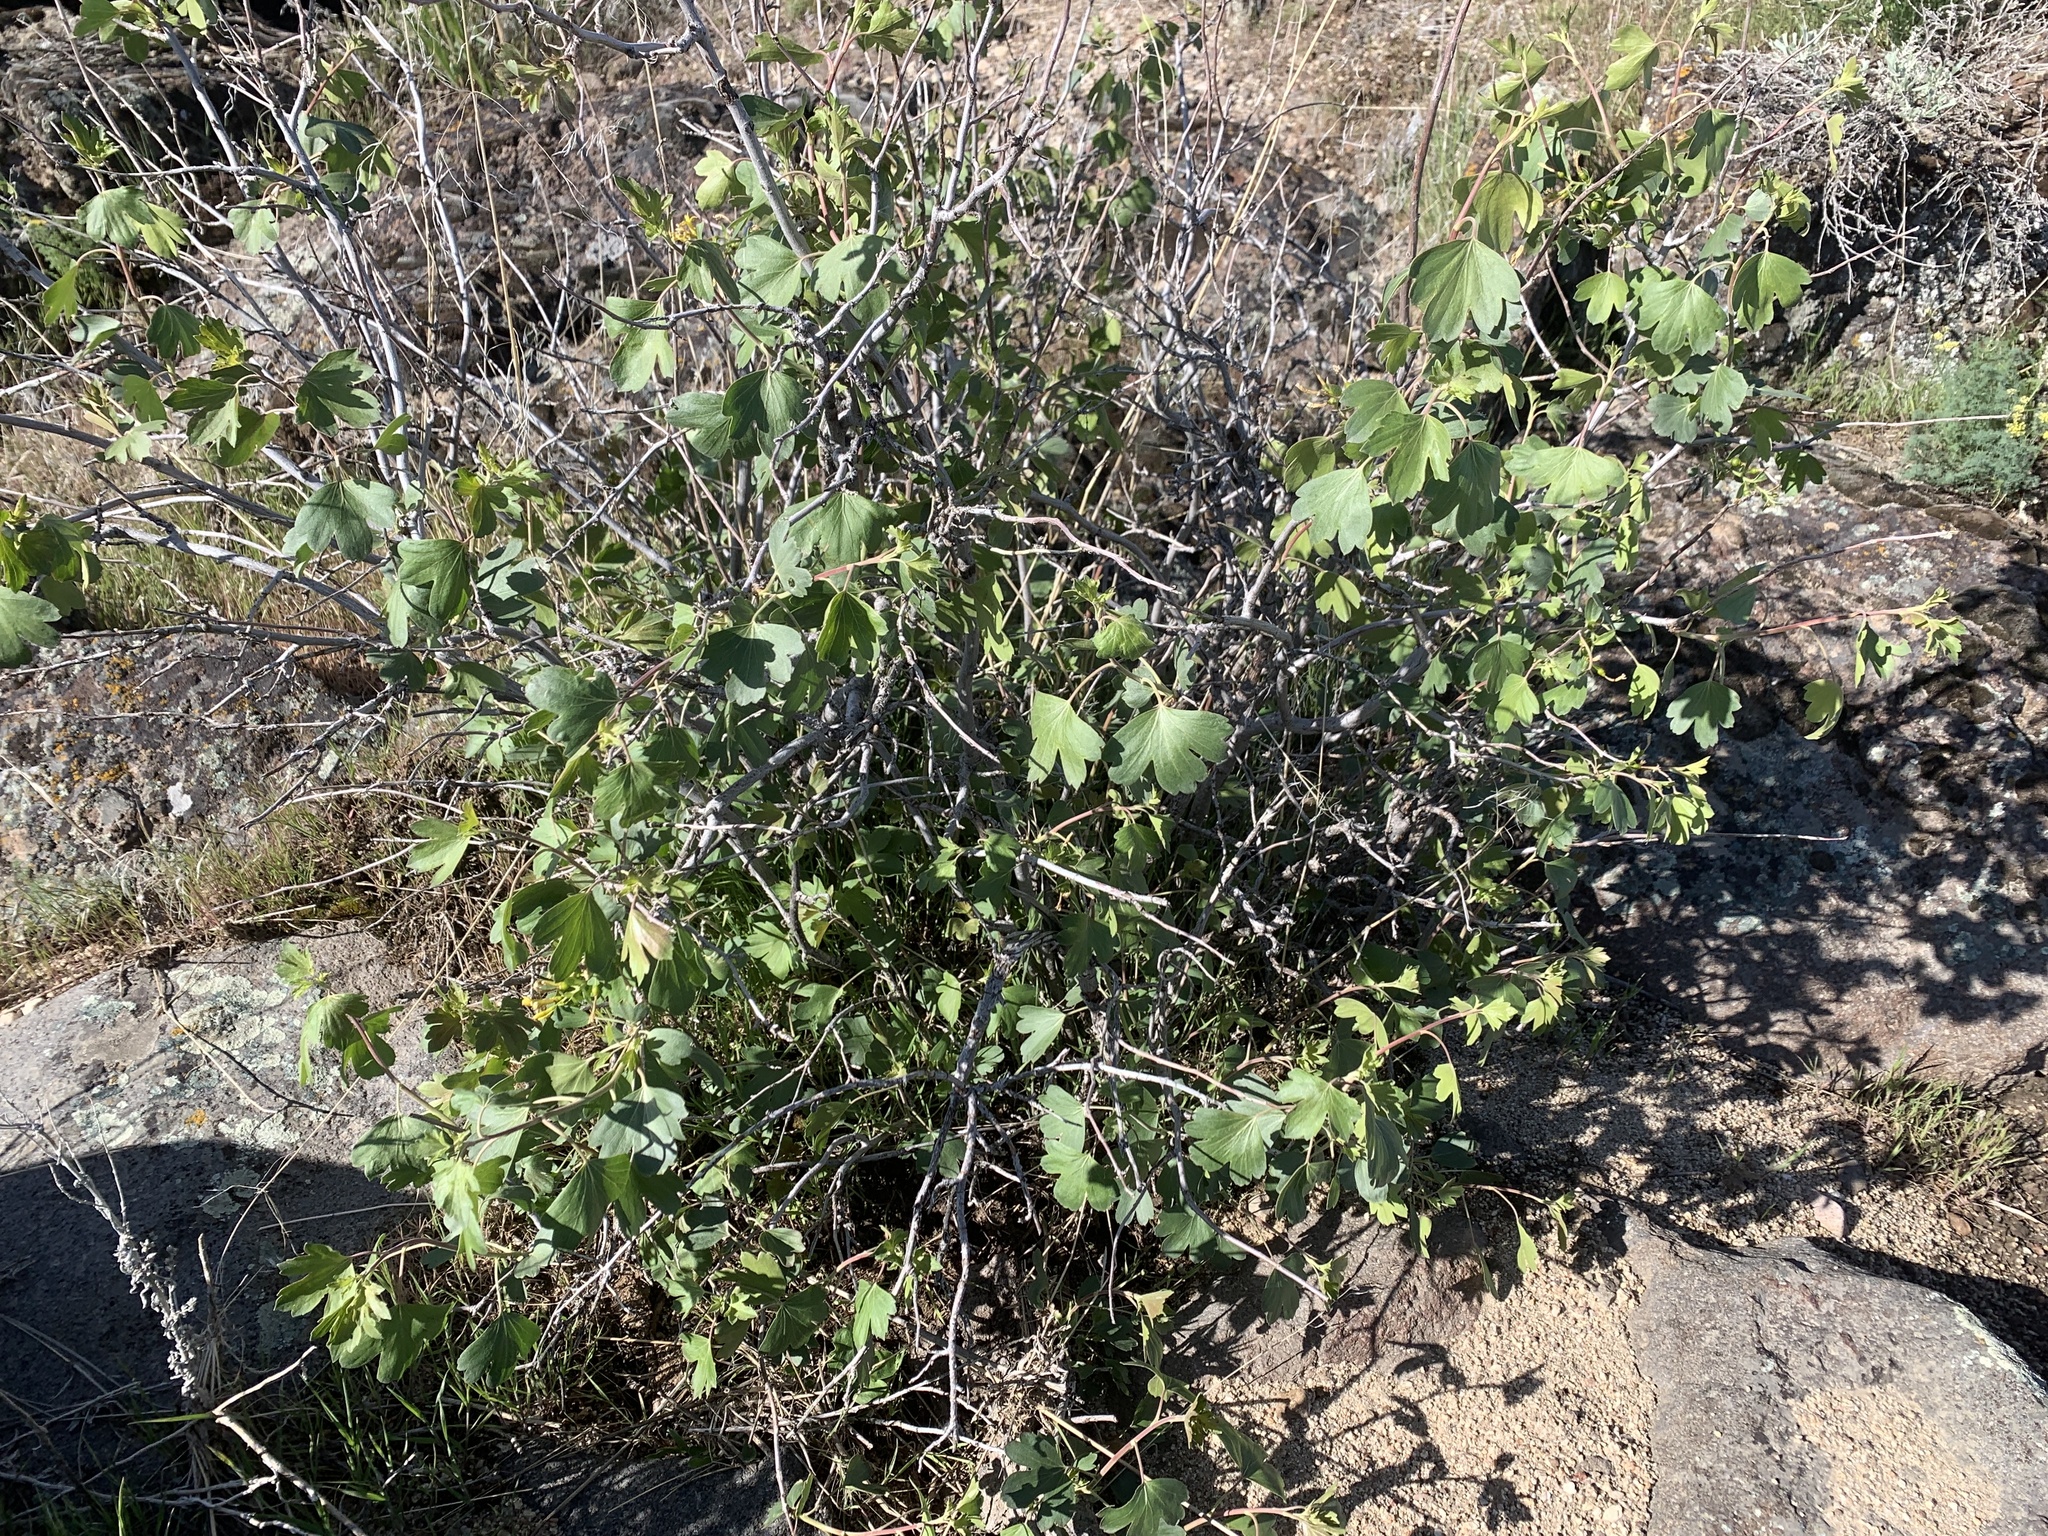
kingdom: Plantae
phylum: Tracheophyta
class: Magnoliopsida
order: Saxifragales
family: Grossulariaceae
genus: Ribes
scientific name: Ribes aureum
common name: Golden currant
